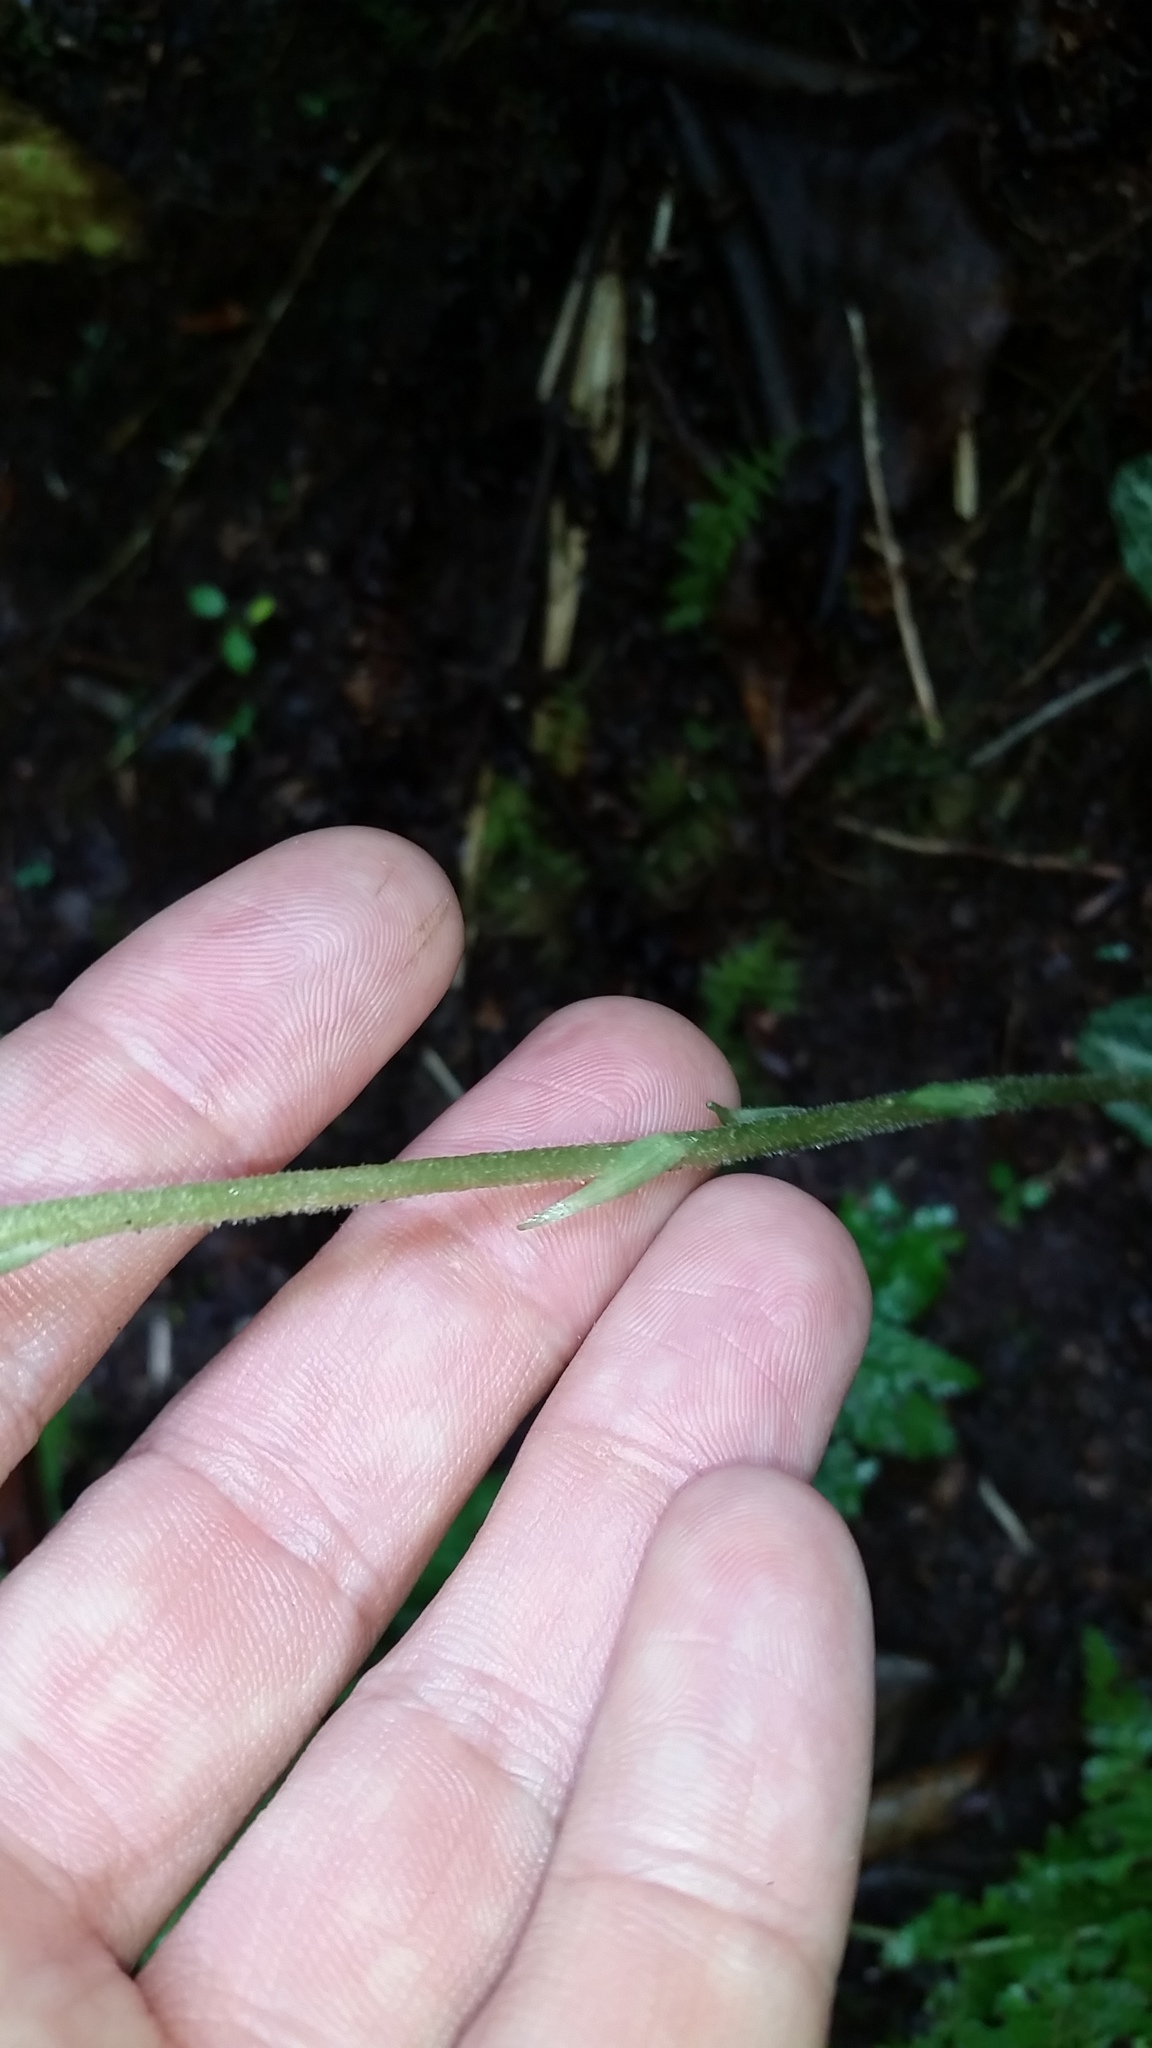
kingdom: Plantae
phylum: Tracheophyta
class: Liliopsida
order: Asparagales
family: Orchidaceae
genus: Goodyera
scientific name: Goodyera pubescens
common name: Downy rattlesnake-plantain
